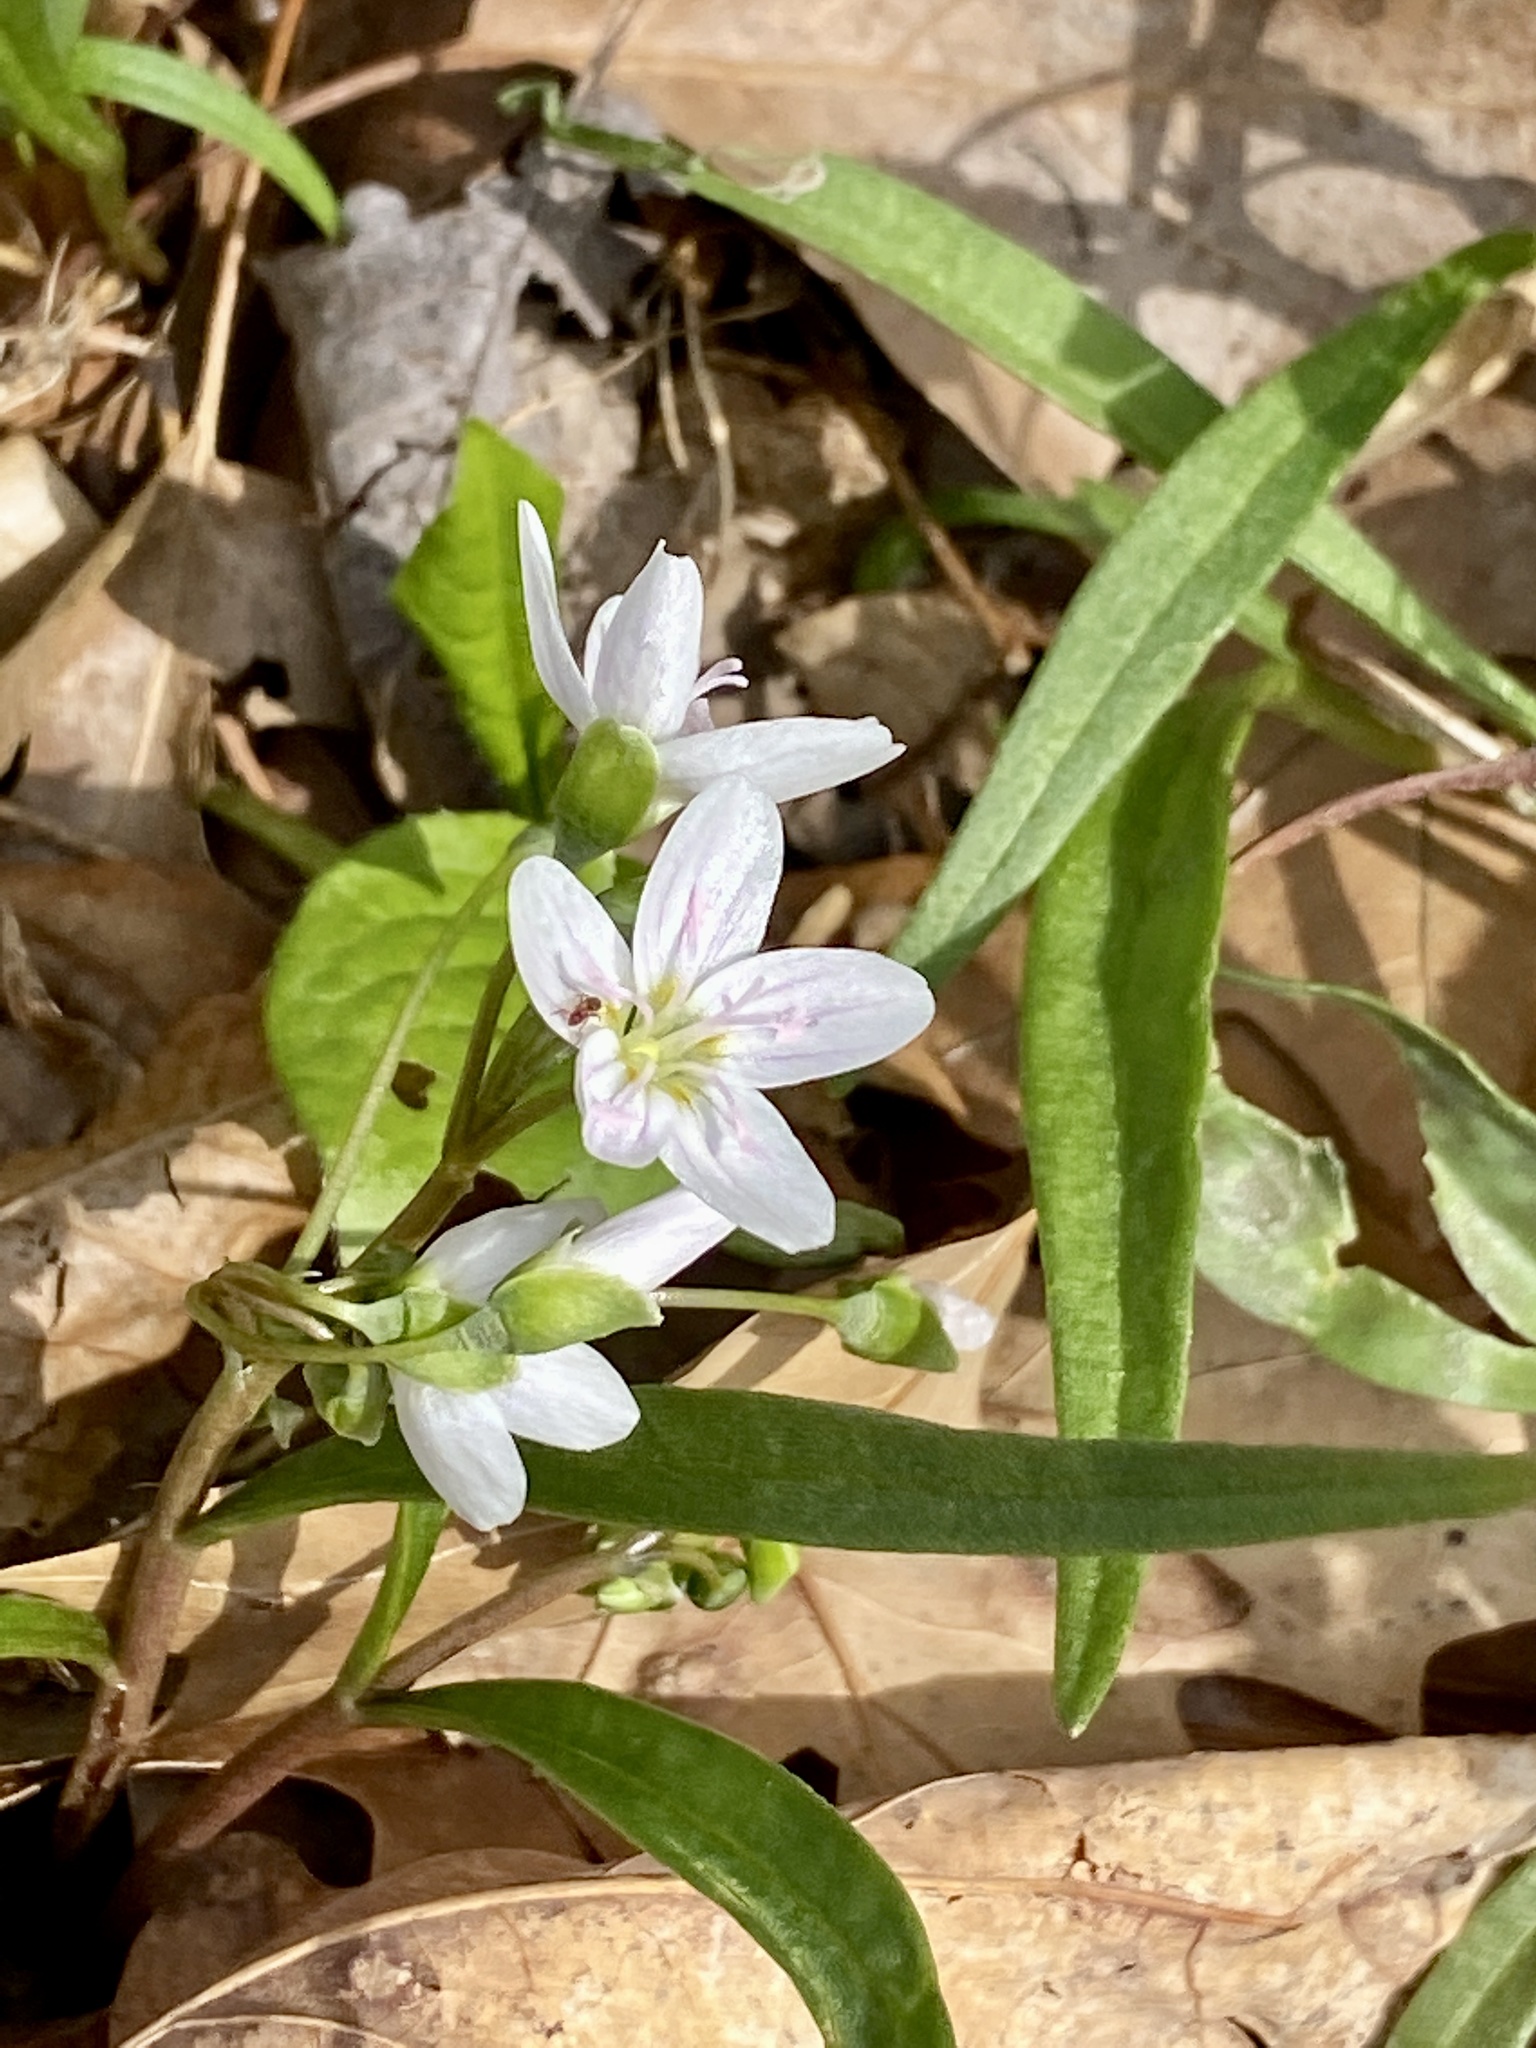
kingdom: Plantae
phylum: Tracheophyta
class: Magnoliopsida
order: Caryophyllales
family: Montiaceae
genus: Claytonia
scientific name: Claytonia virginica
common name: Virginia springbeauty
